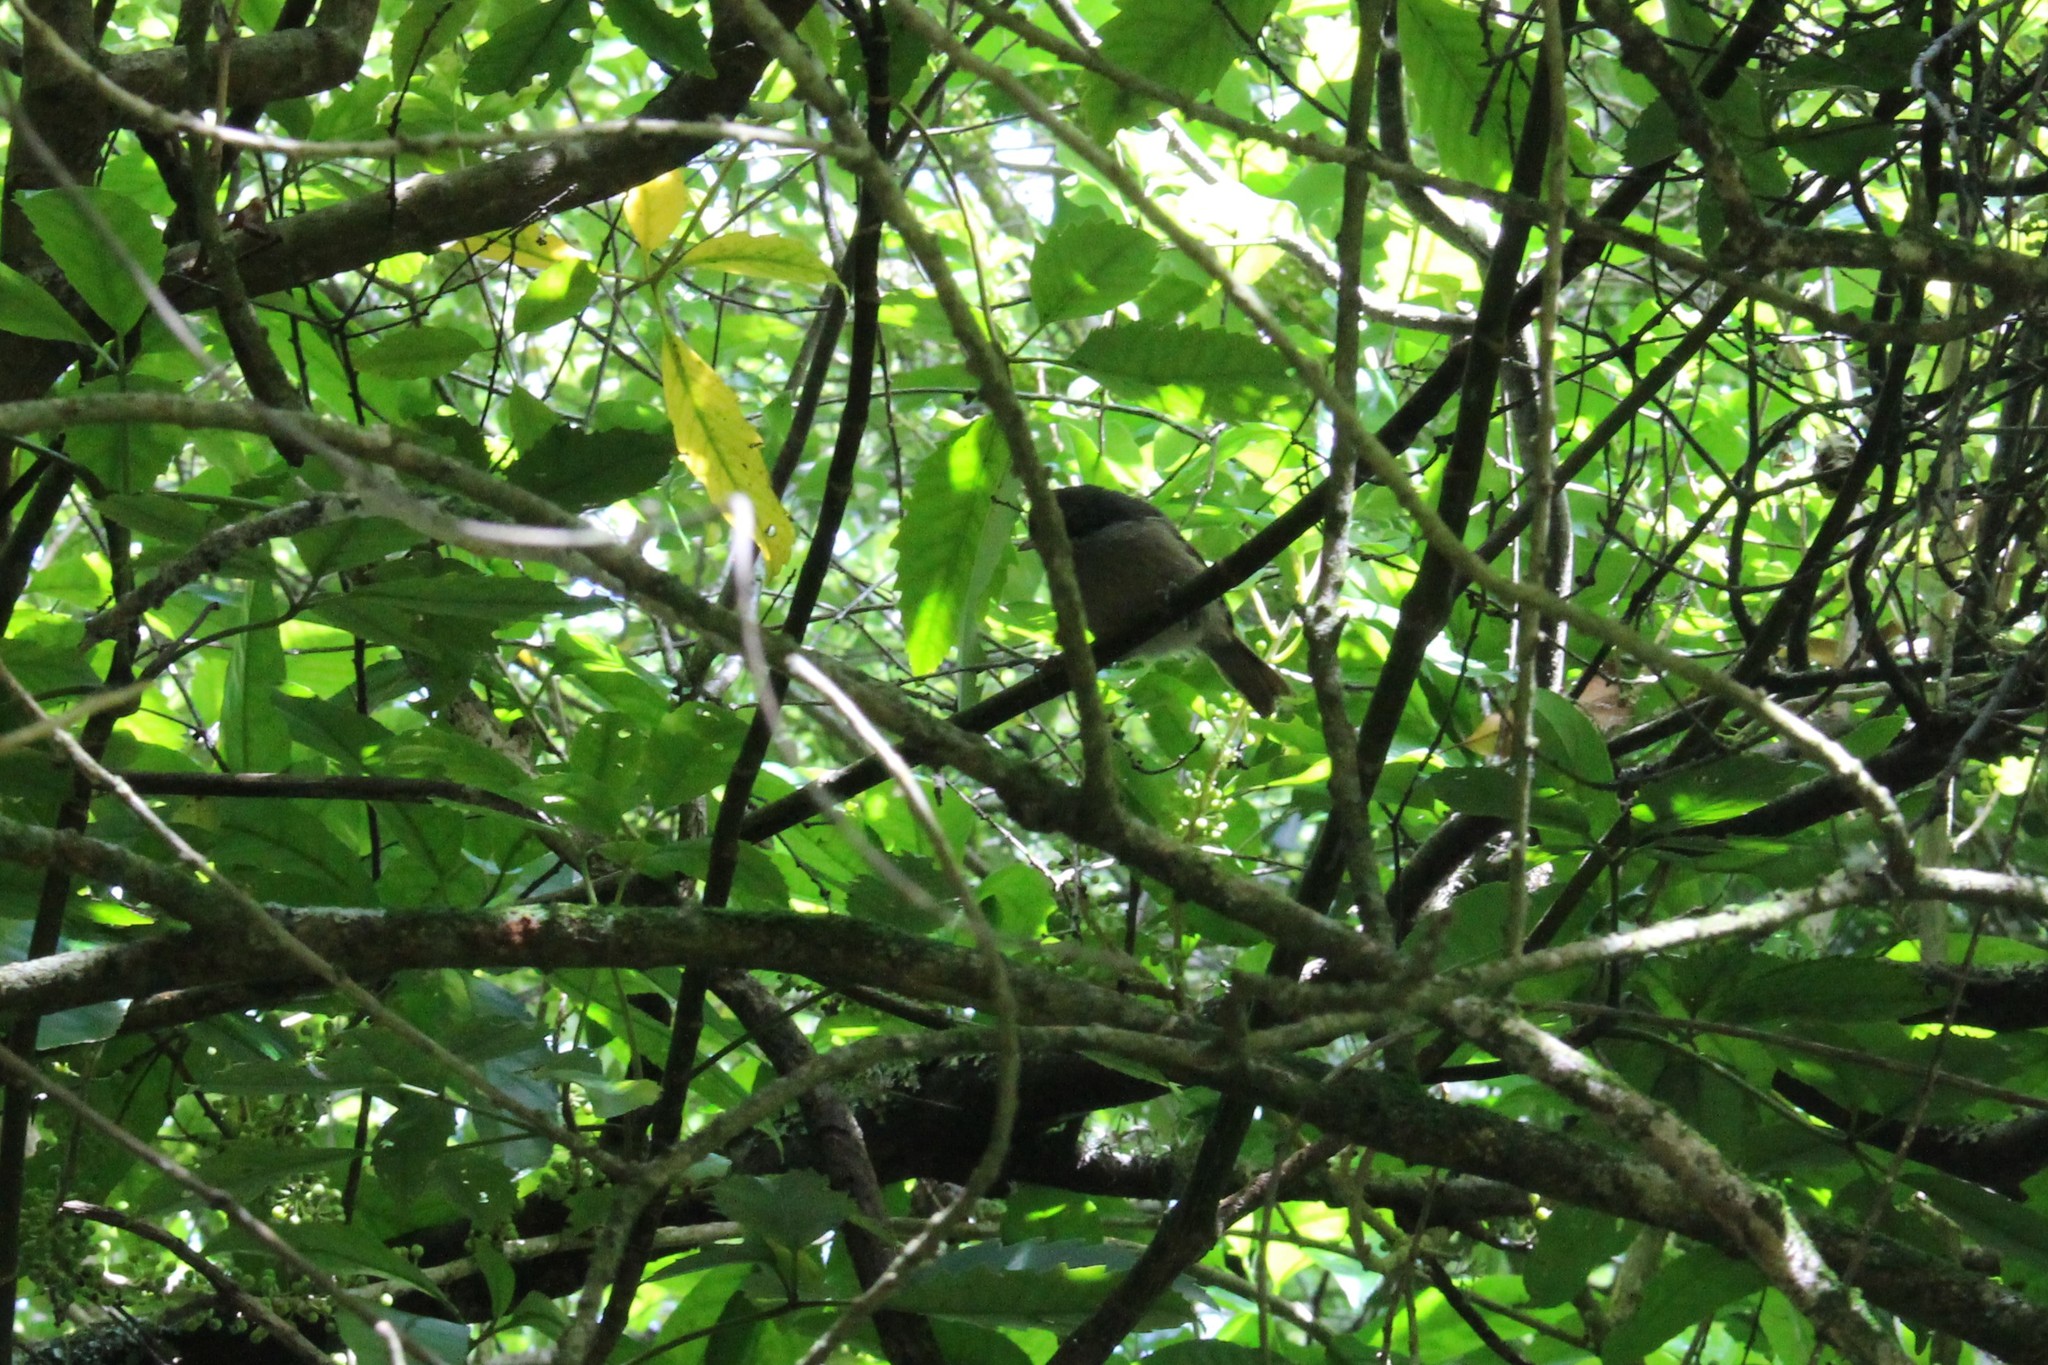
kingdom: Animalia
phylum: Chordata
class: Aves
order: Passeriformes
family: Acanthizidae
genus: Finschia
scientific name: Finschia novaeseelandiae
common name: Pipipi
